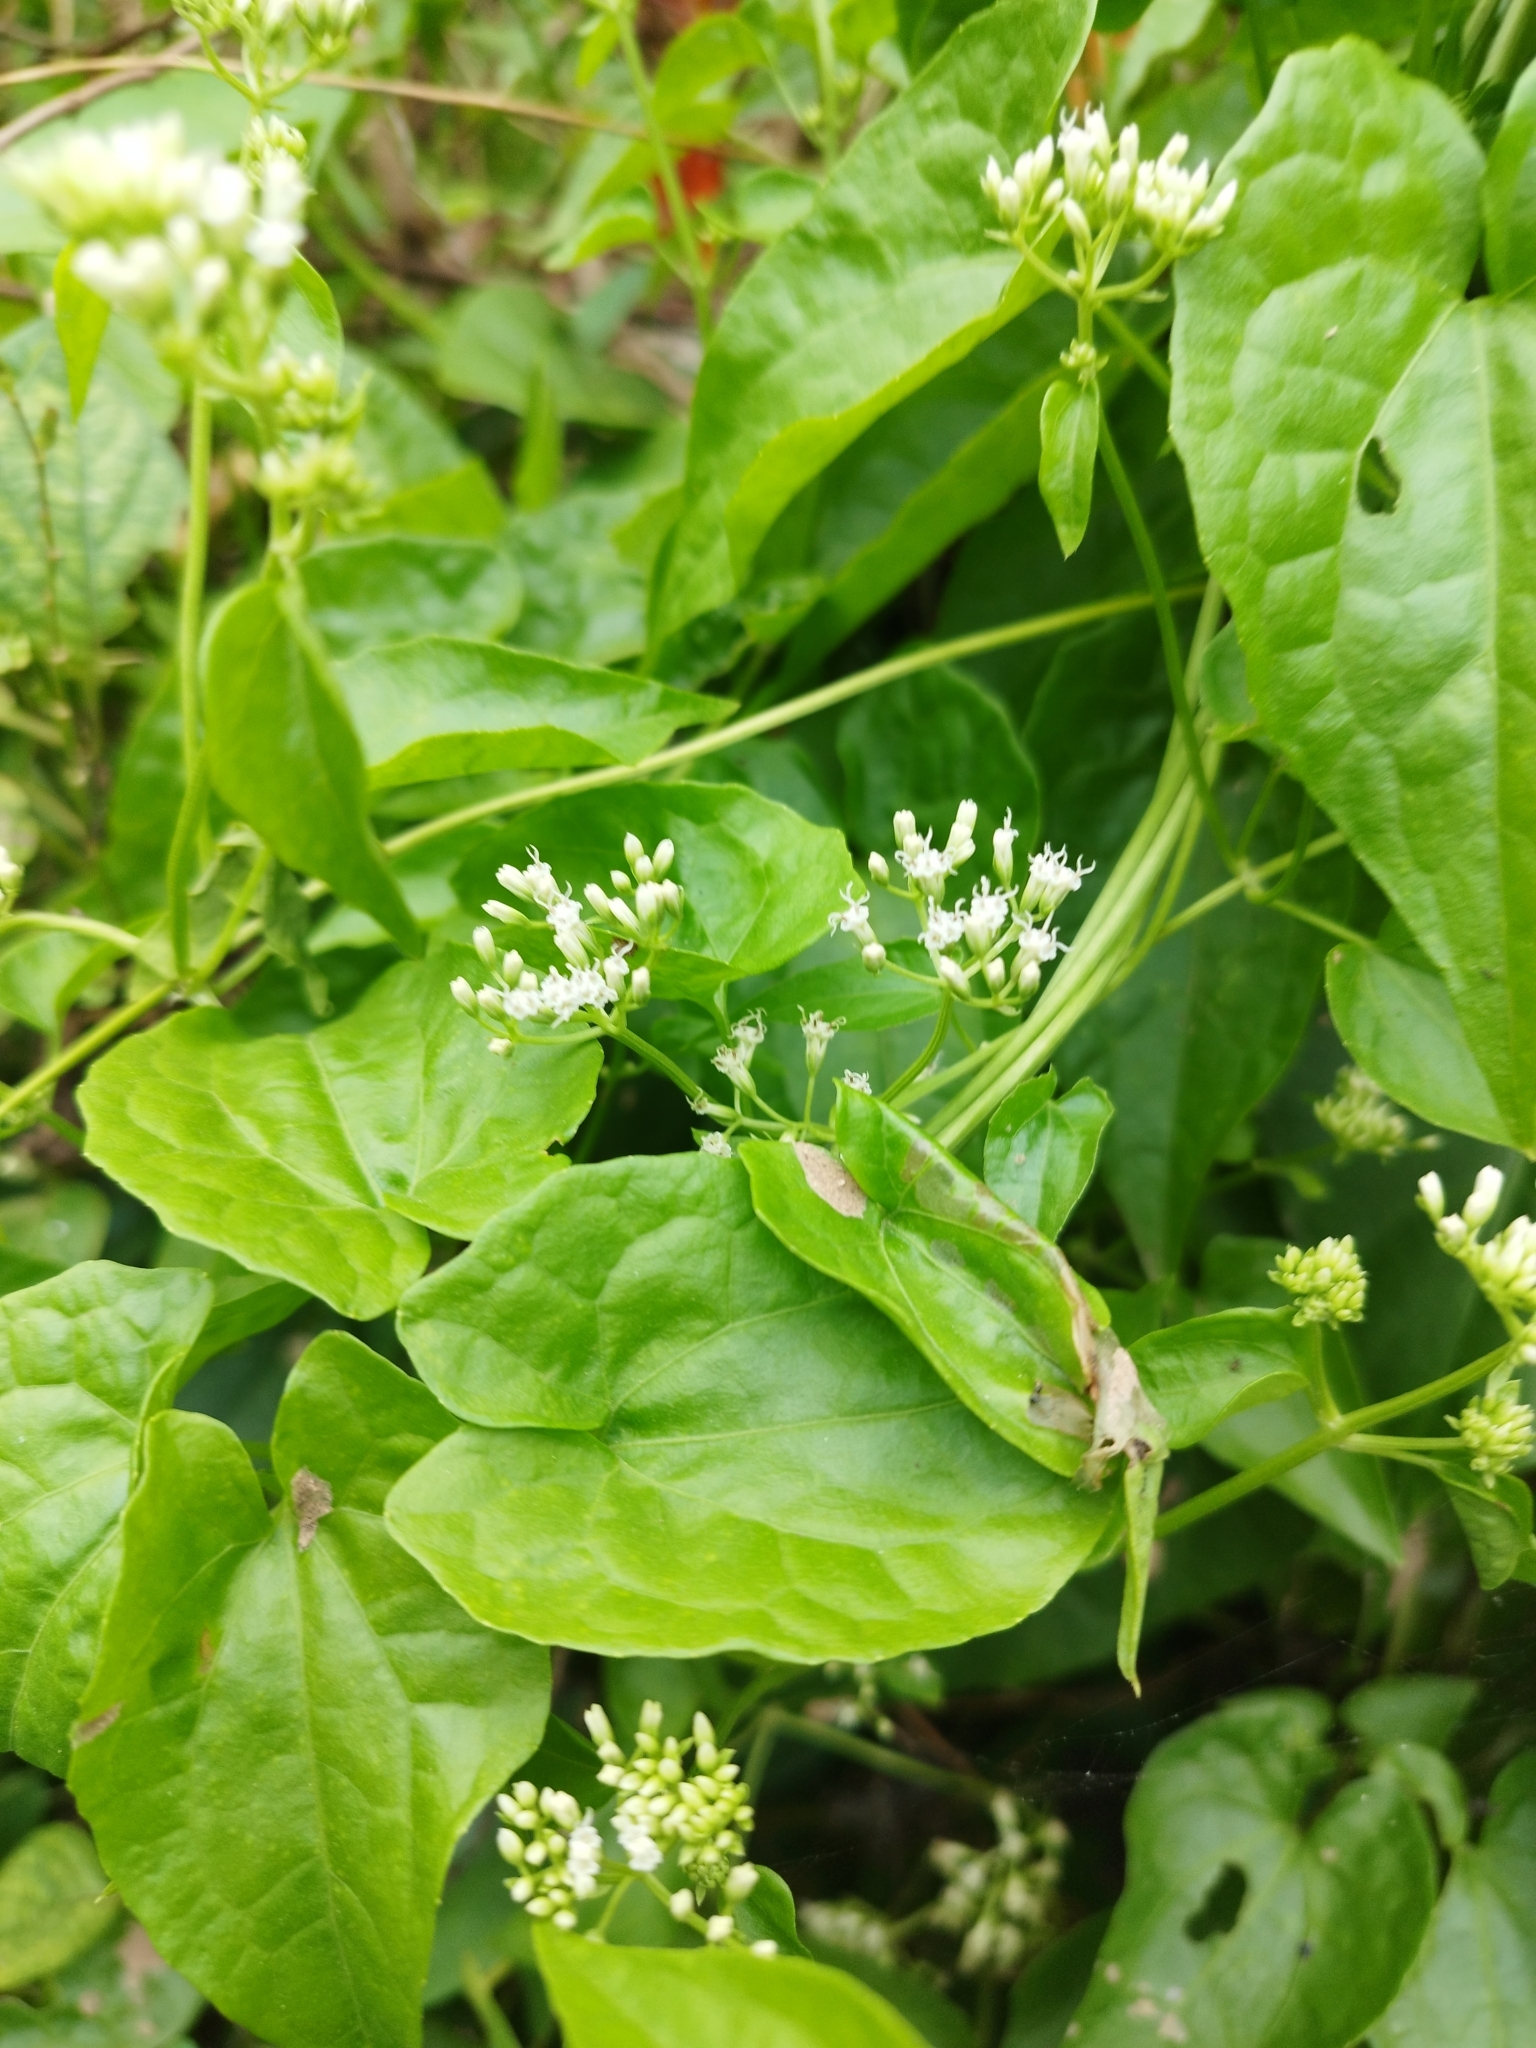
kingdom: Plantae
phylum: Tracheophyta
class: Magnoliopsida
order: Asterales
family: Asteraceae
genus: Mikania
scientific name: Mikania micrantha
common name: Mile-a-minute
